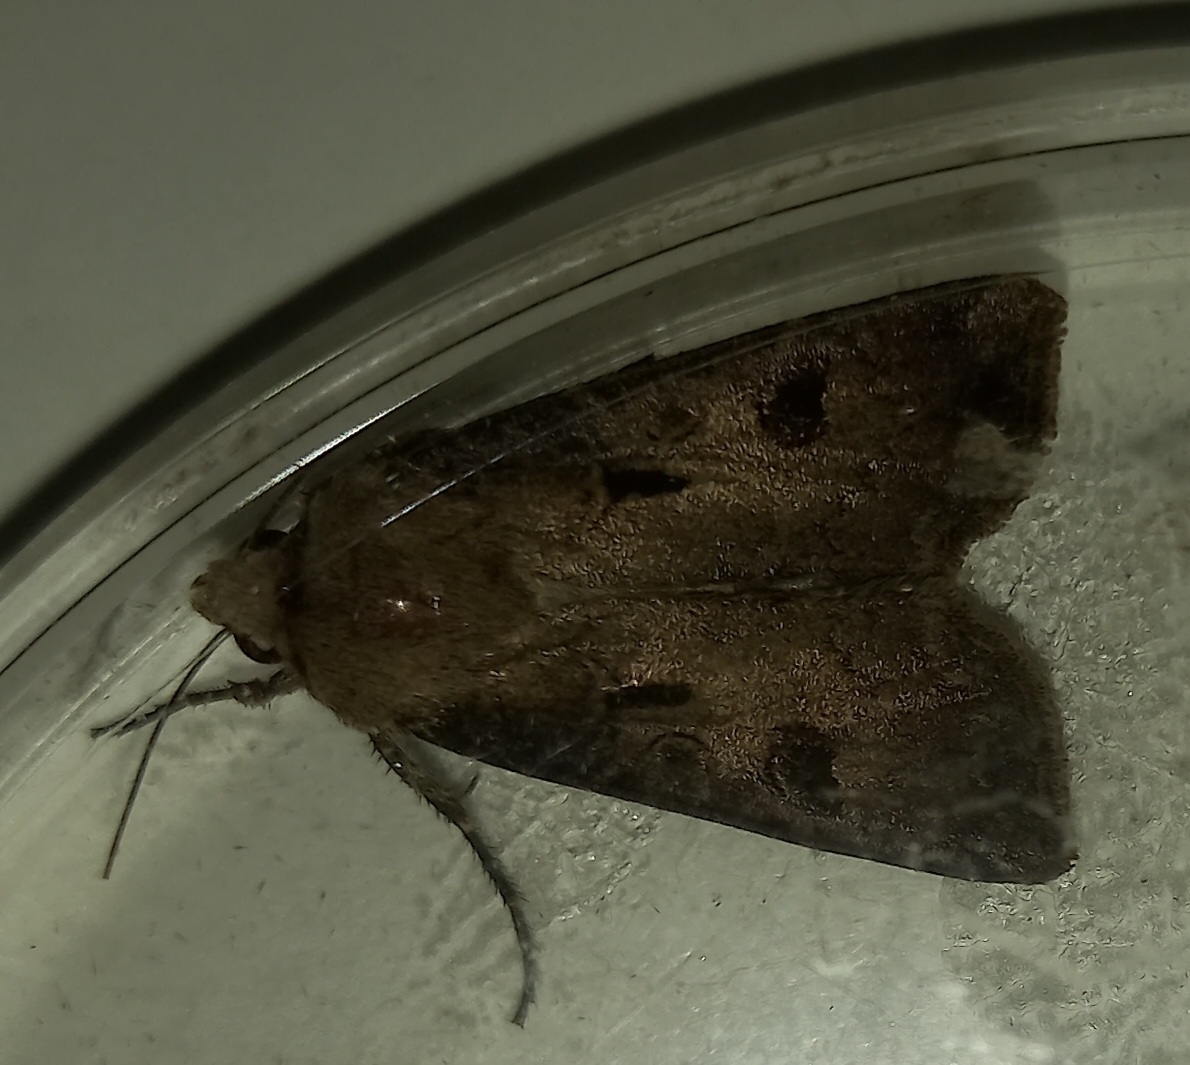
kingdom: Animalia
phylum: Arthropoda
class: Insecta
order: Lepidoptera
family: Noctuidae
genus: Agrotis
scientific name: Agrotis exclamationis
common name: Heart and dart
